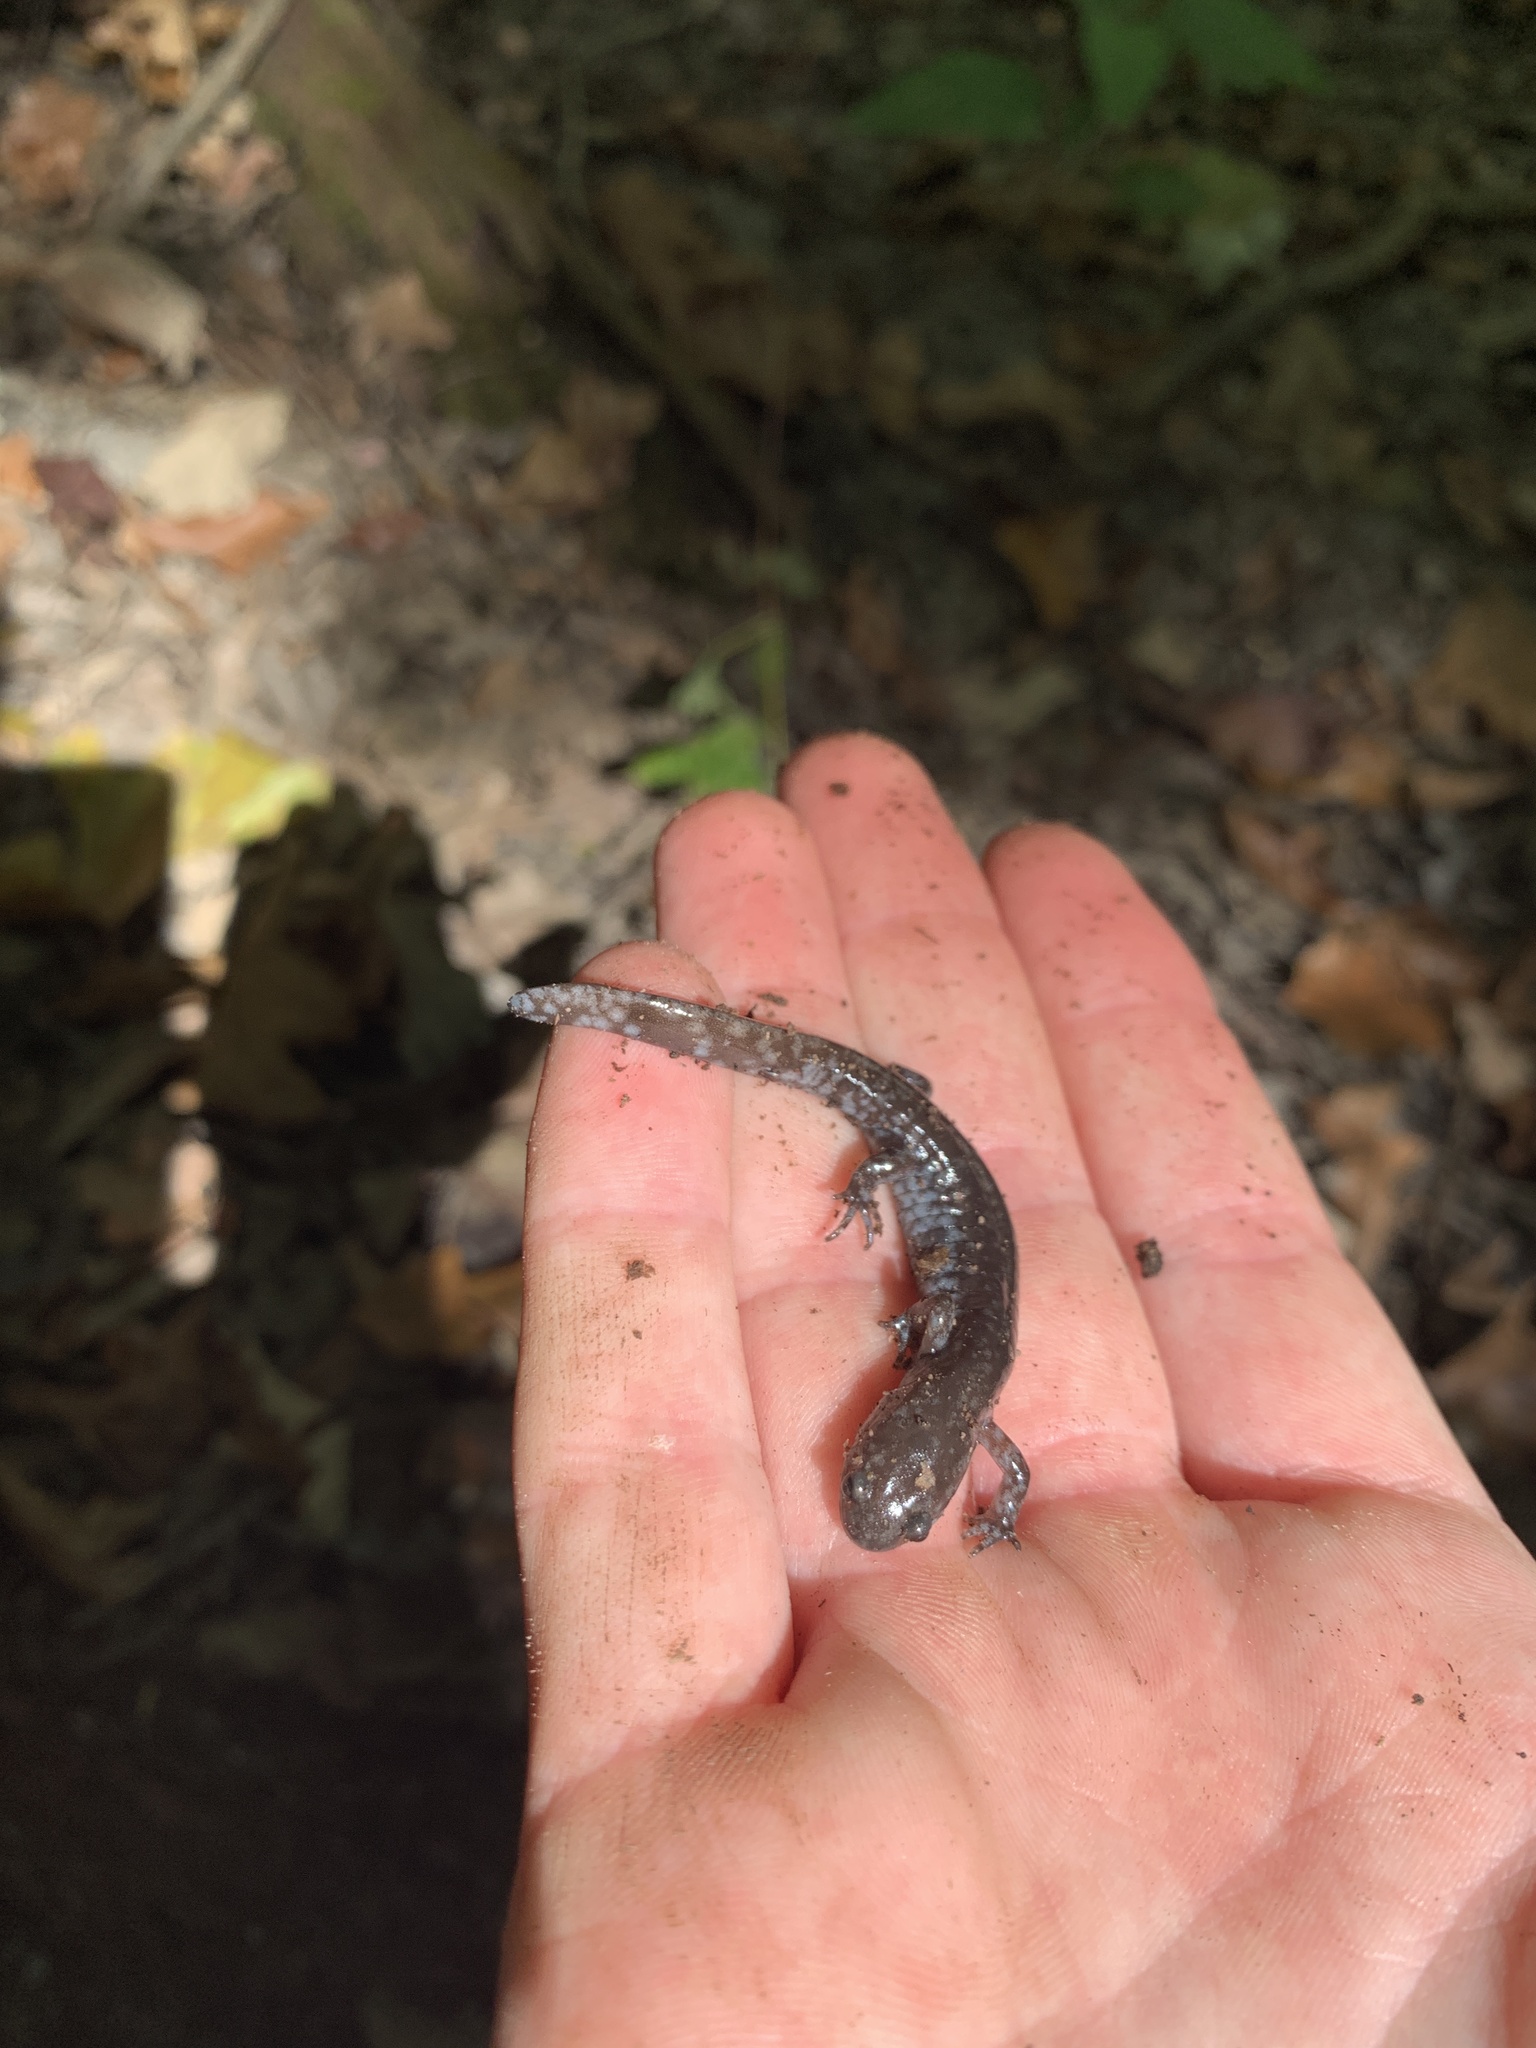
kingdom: Animalia
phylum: Chordata
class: Amphibia
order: Caudata
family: Ambystomatidae
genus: Ambystoma
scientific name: Ambystoma texanum
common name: Small-mouth salamander
